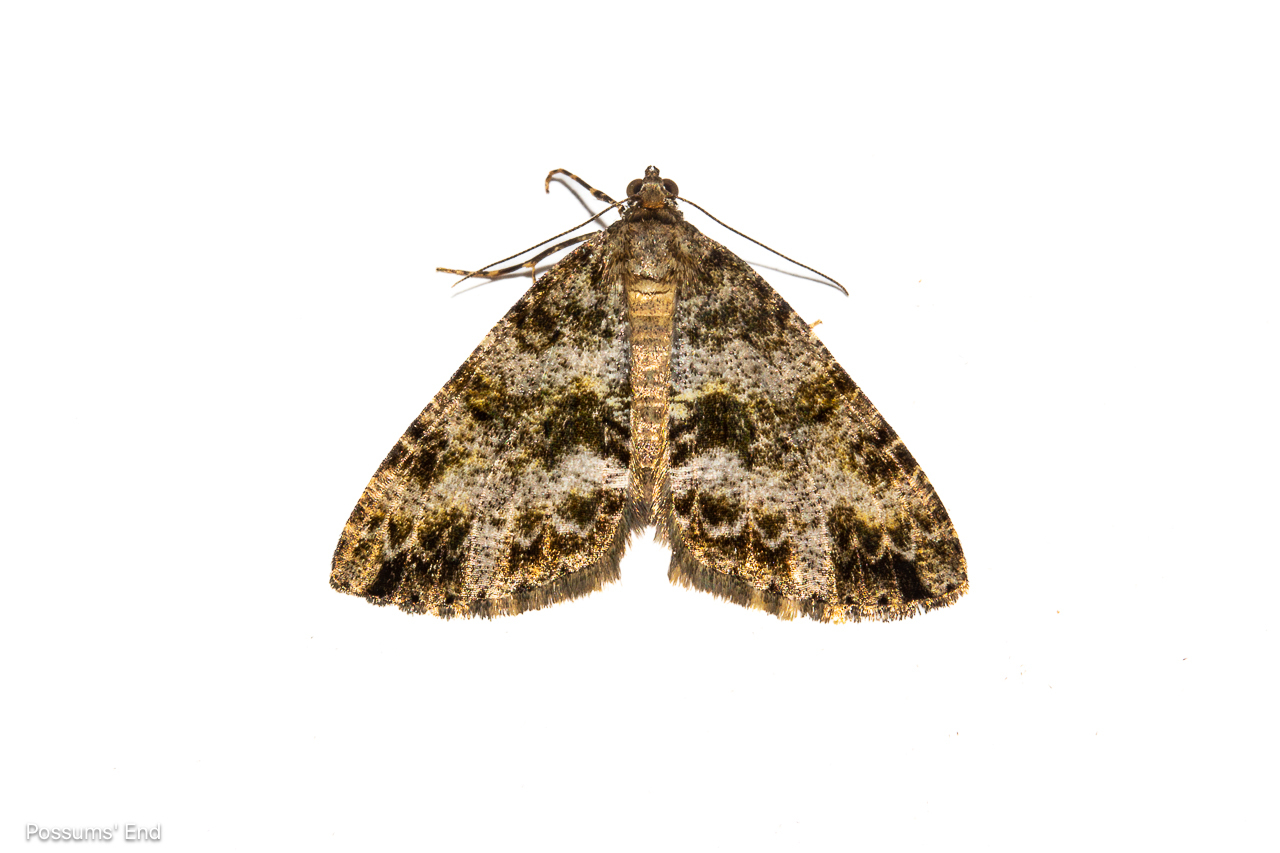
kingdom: Animalia
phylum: Arthropoda
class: Insecta
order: Lepidoptera
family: Geometridae
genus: Pseudocoremia
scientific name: Pseudocoremia lactiflua
